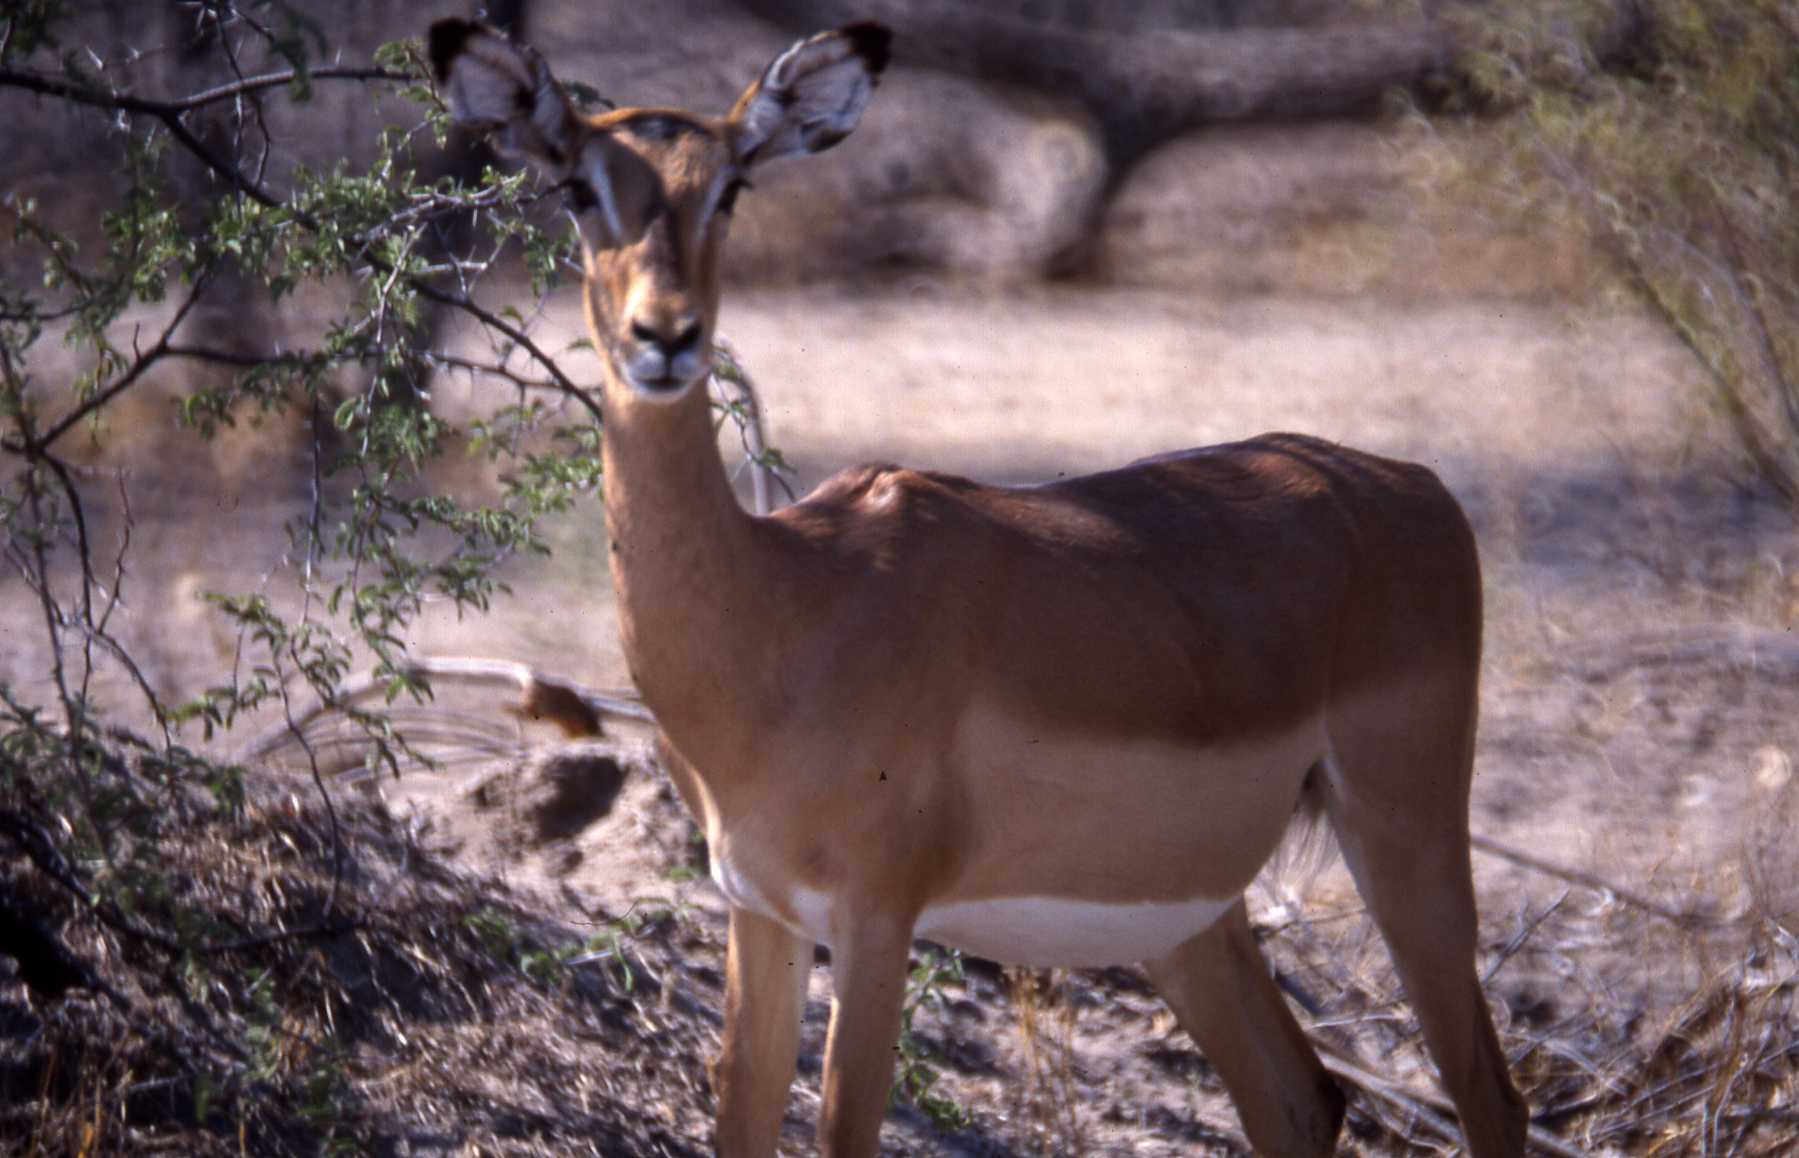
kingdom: Animalia
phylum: Chordata
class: Mammalia
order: Artiodactyla
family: Bovidae
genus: Aepyceros
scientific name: Aepyceros melampus
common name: Impala
